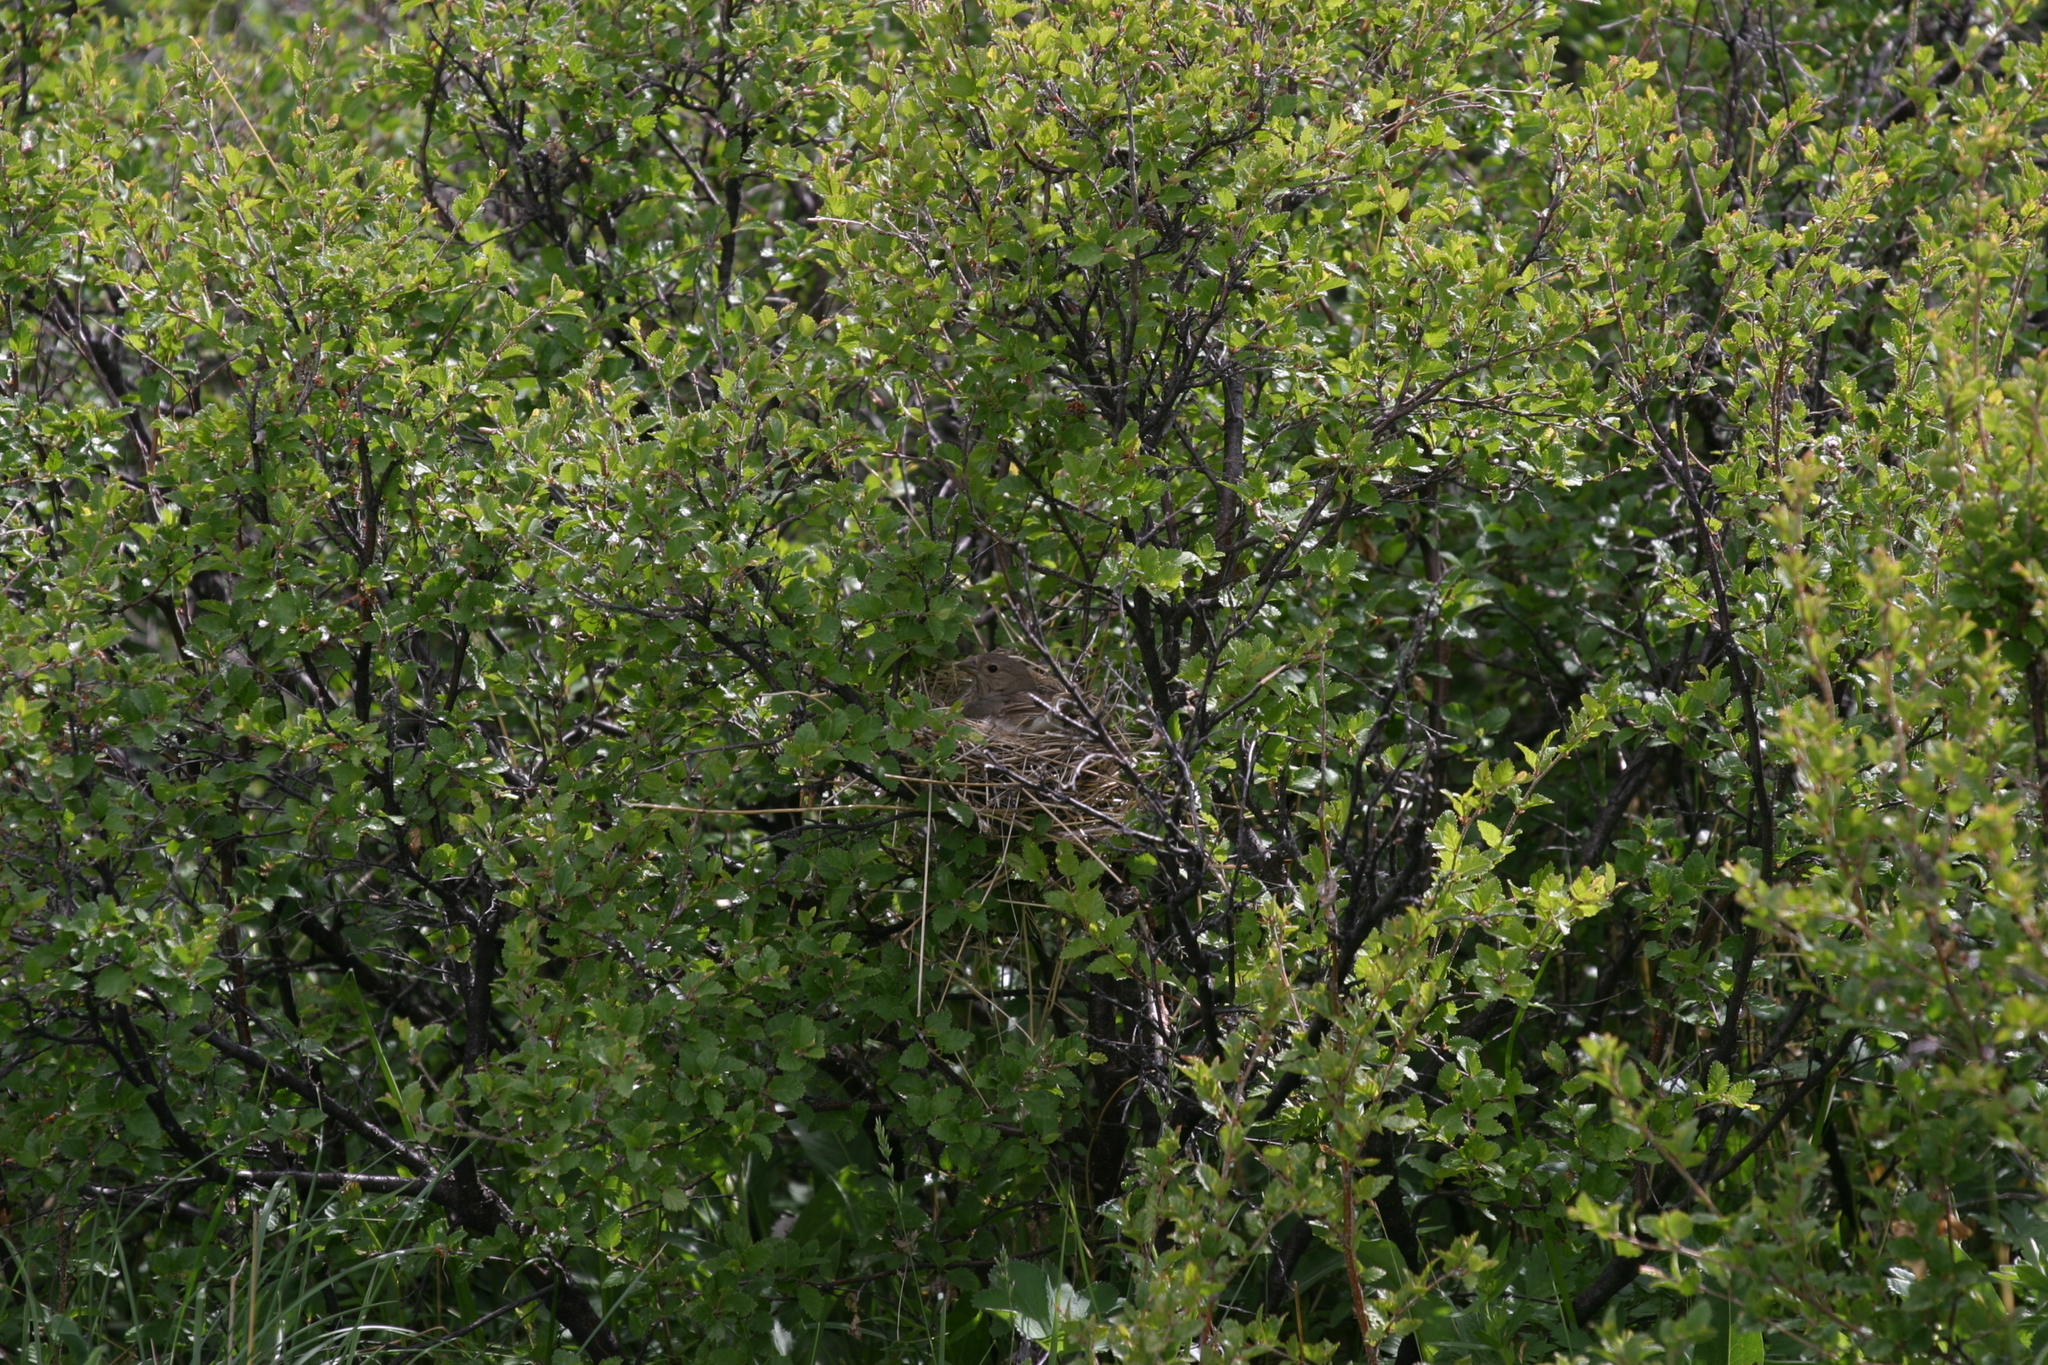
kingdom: Animalia
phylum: Chordata
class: Aves
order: Passeriformes
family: Fringillidae
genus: Carpodacus
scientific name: Carpodacus erythrinus
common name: Common rosefinch
